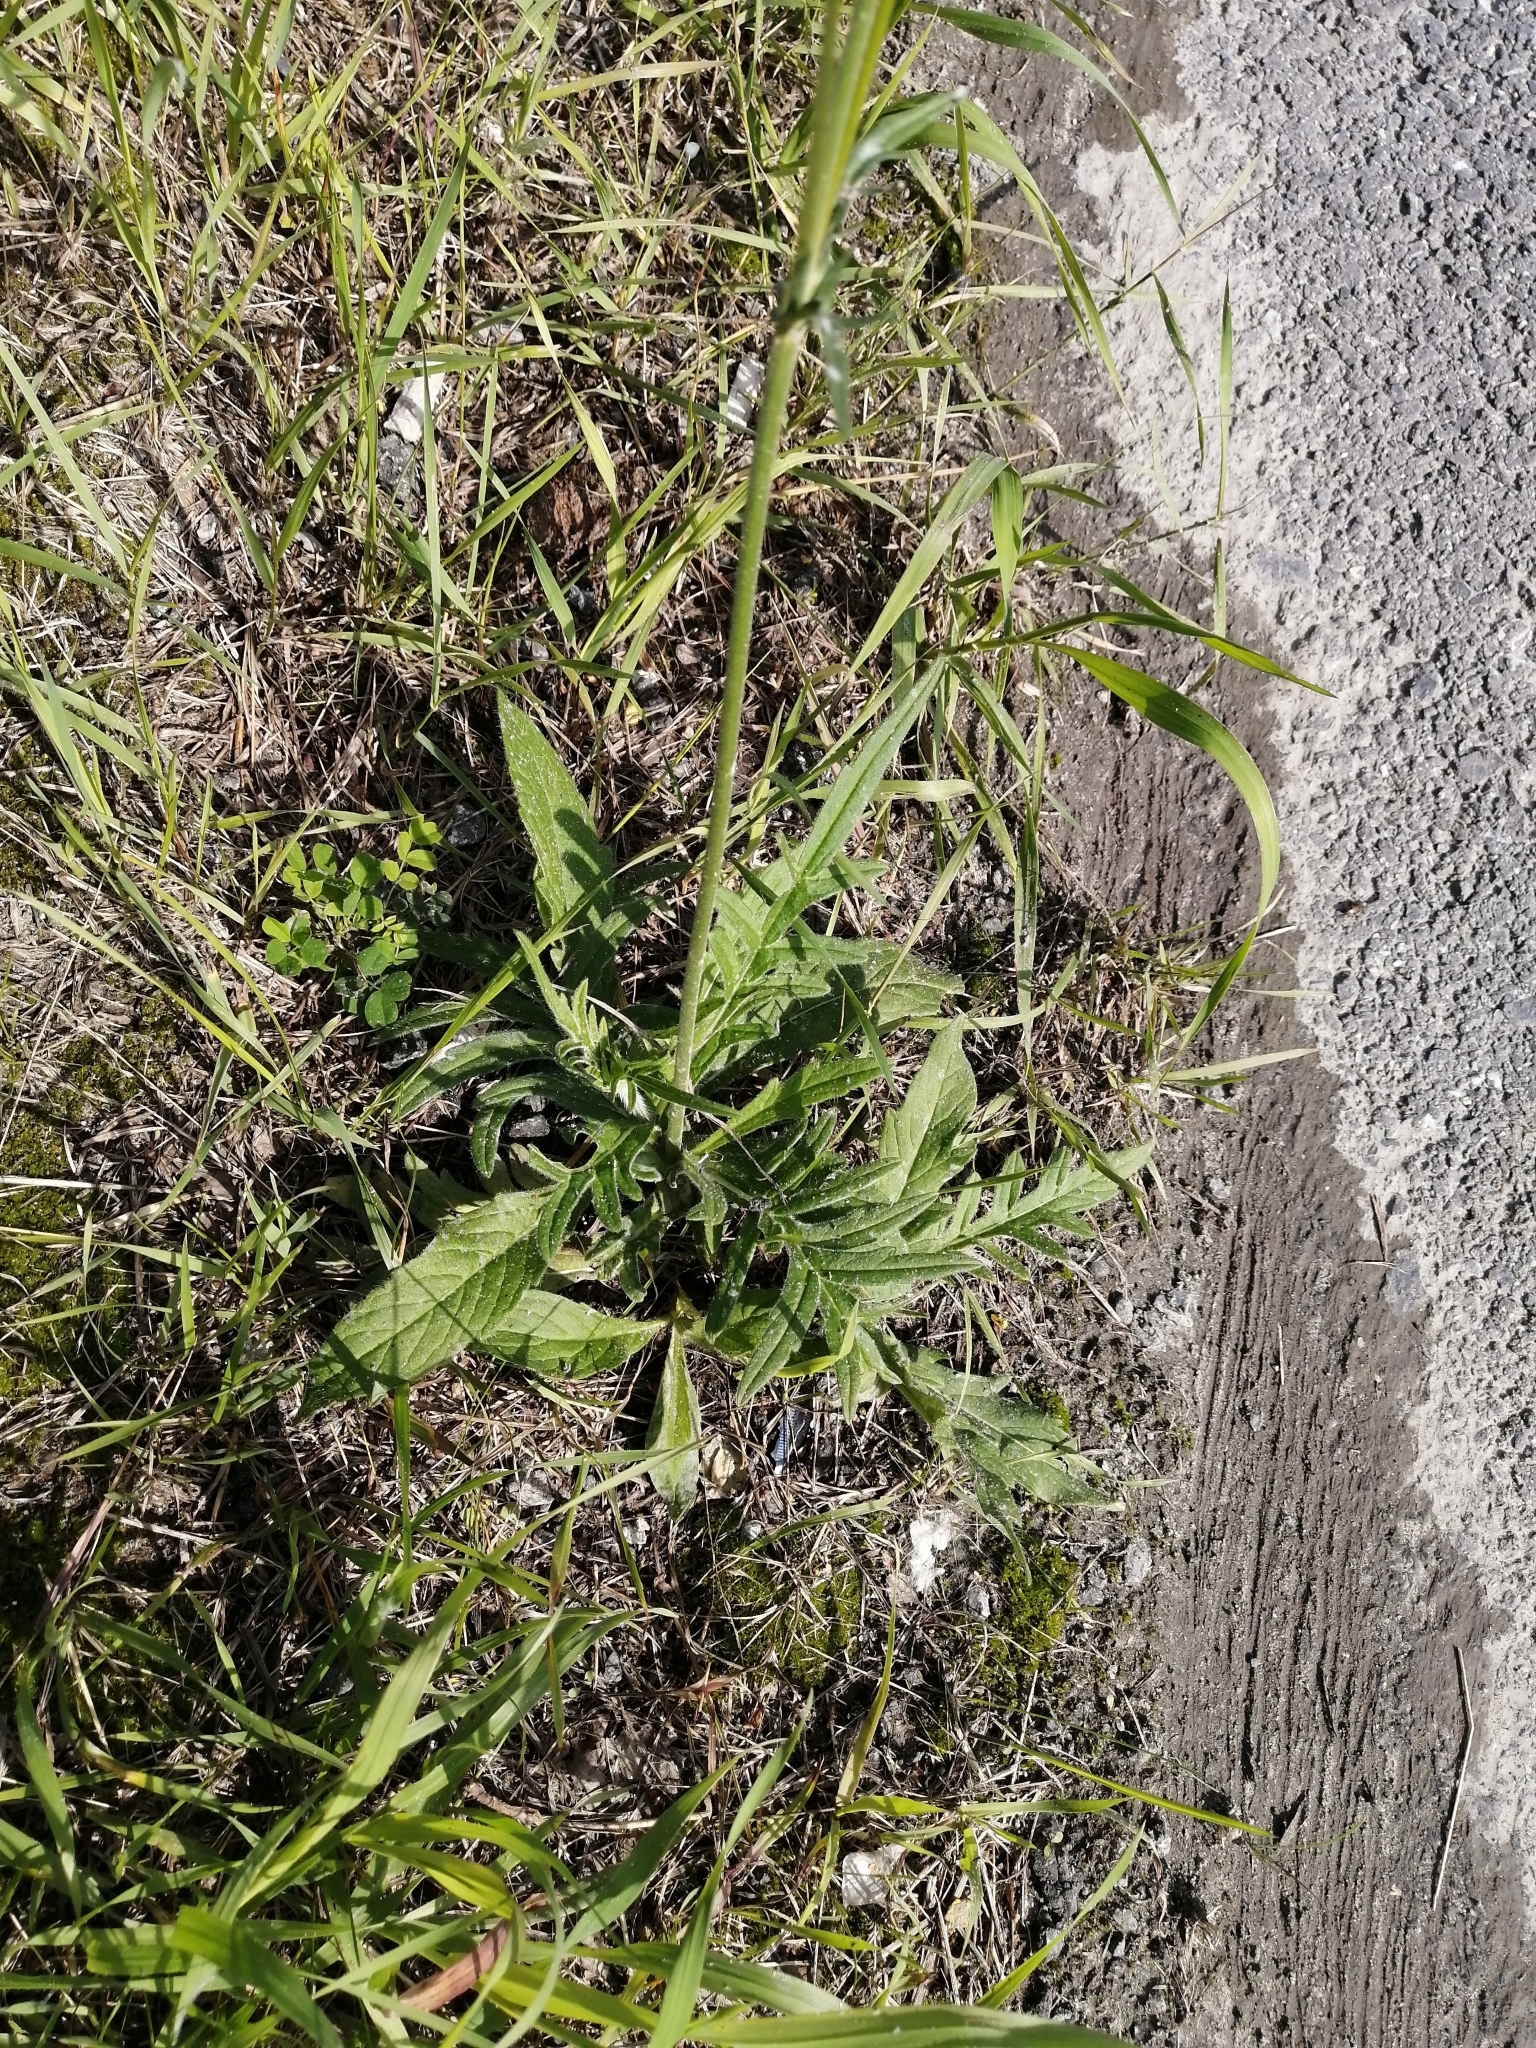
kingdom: Plantae
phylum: Tracheophyta
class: Magnoliopsida
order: Dipsacales
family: Caprifoliaceae
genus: Knautia
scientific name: Knautia arvensis
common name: Field scabiosa
